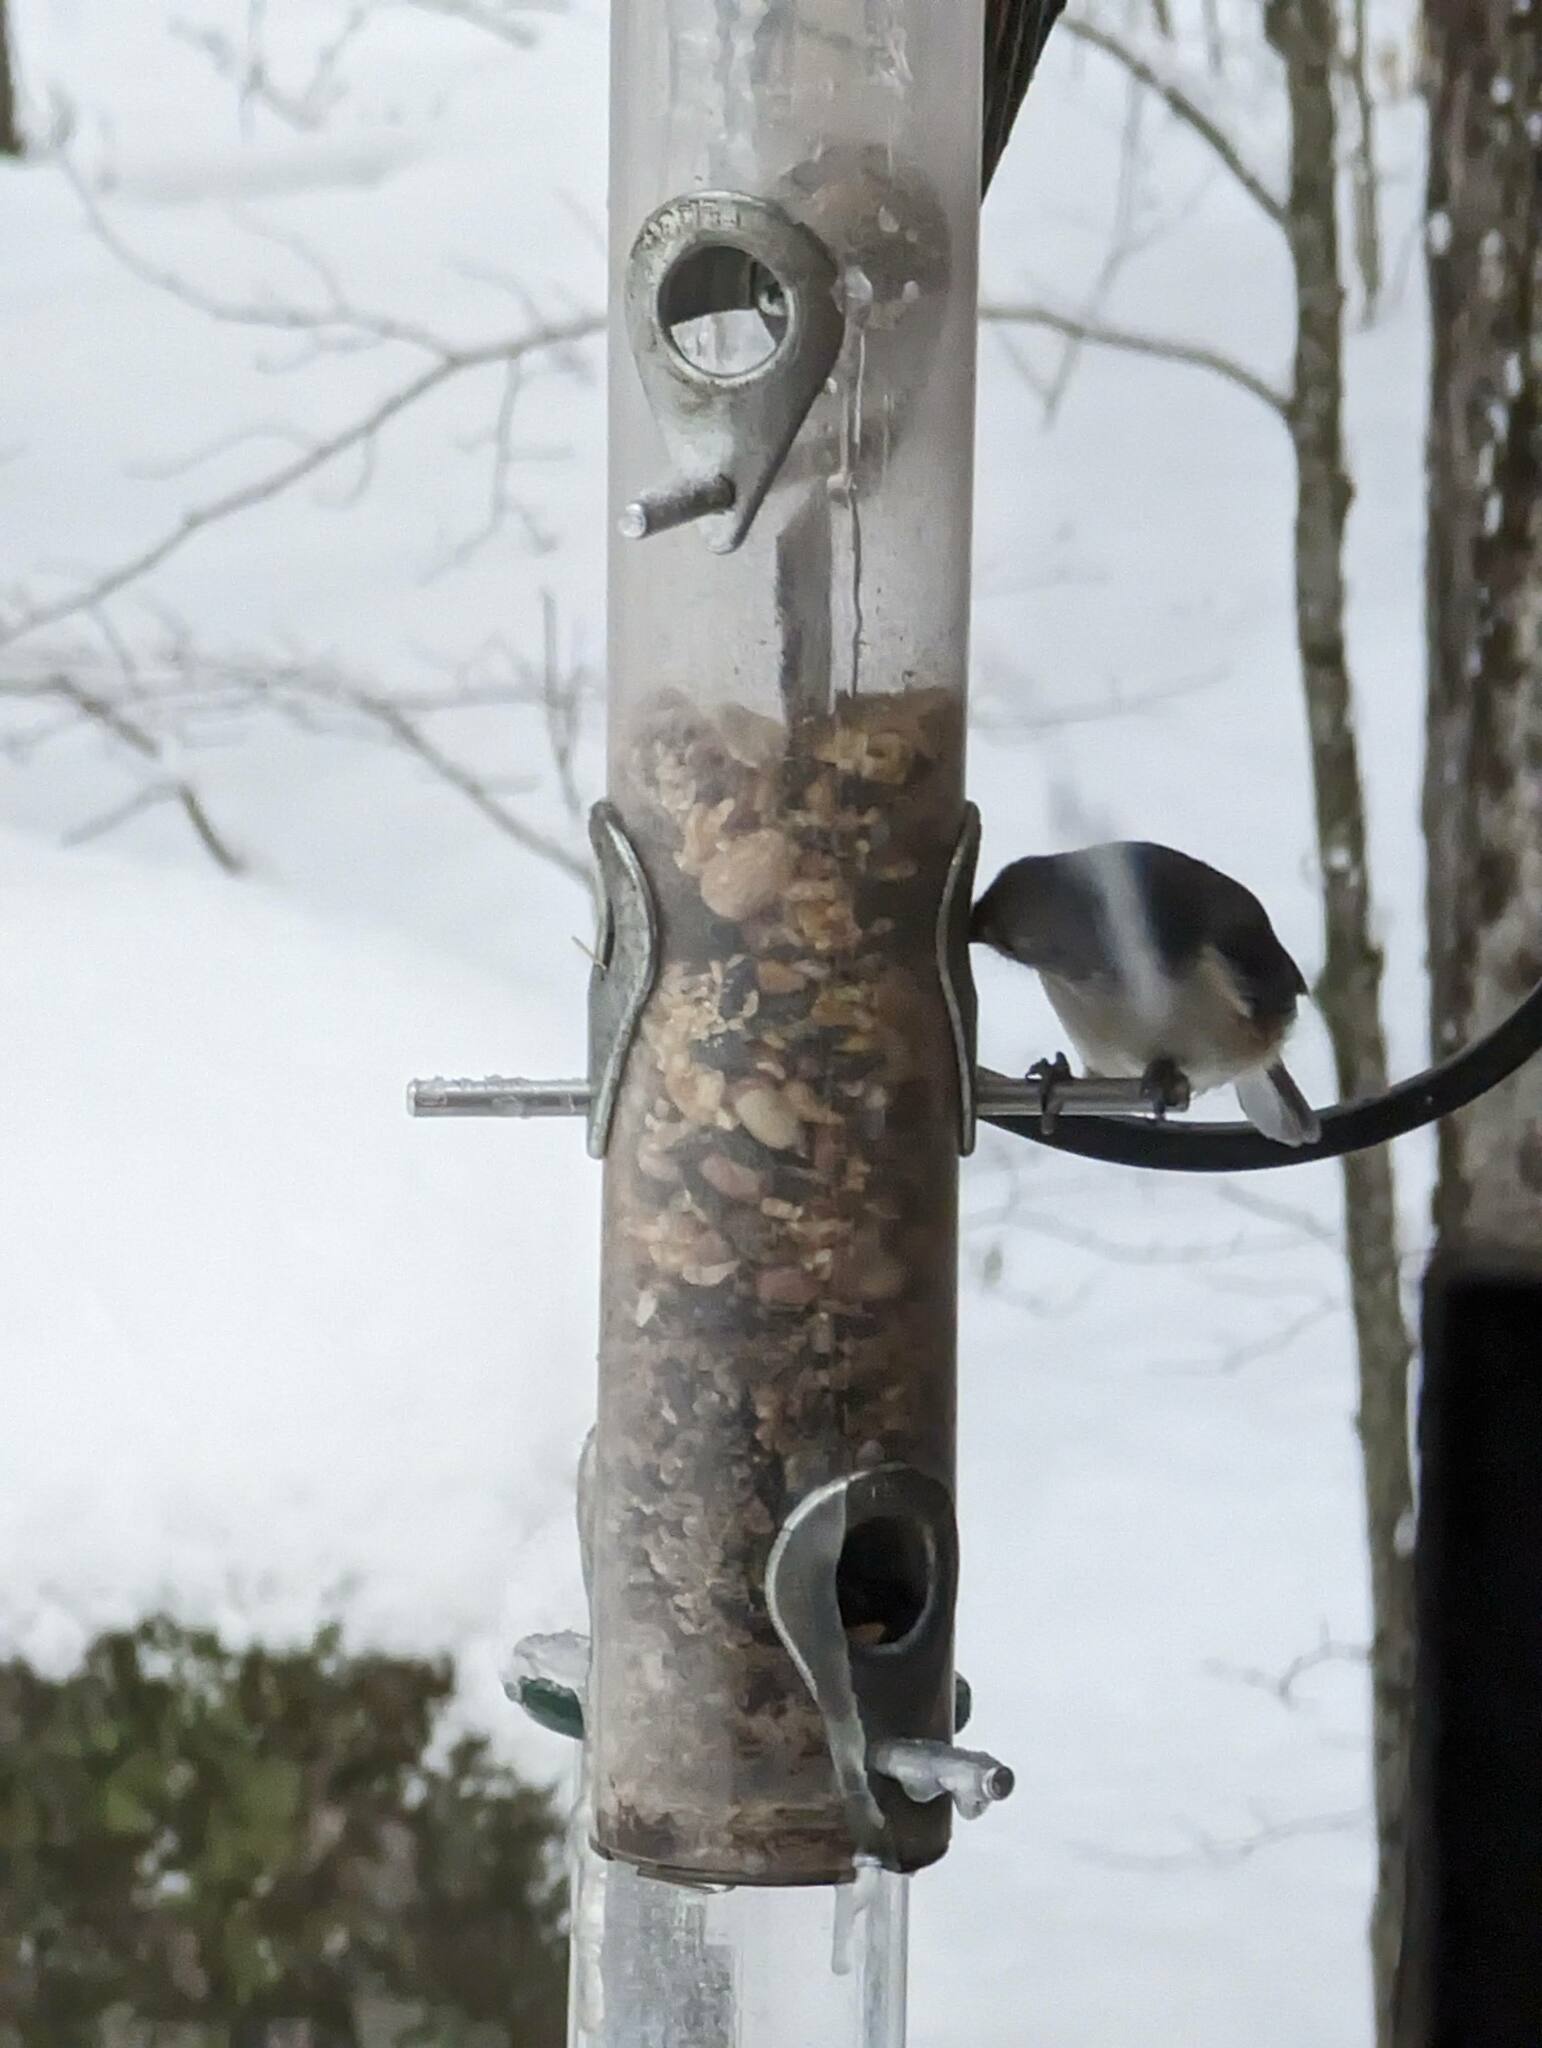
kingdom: Animalia
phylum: Chordata
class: Aves
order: Passeriformes
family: Paridae
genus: Baeolophus
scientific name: Baeolophus bicolor
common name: Tufted titmouse
